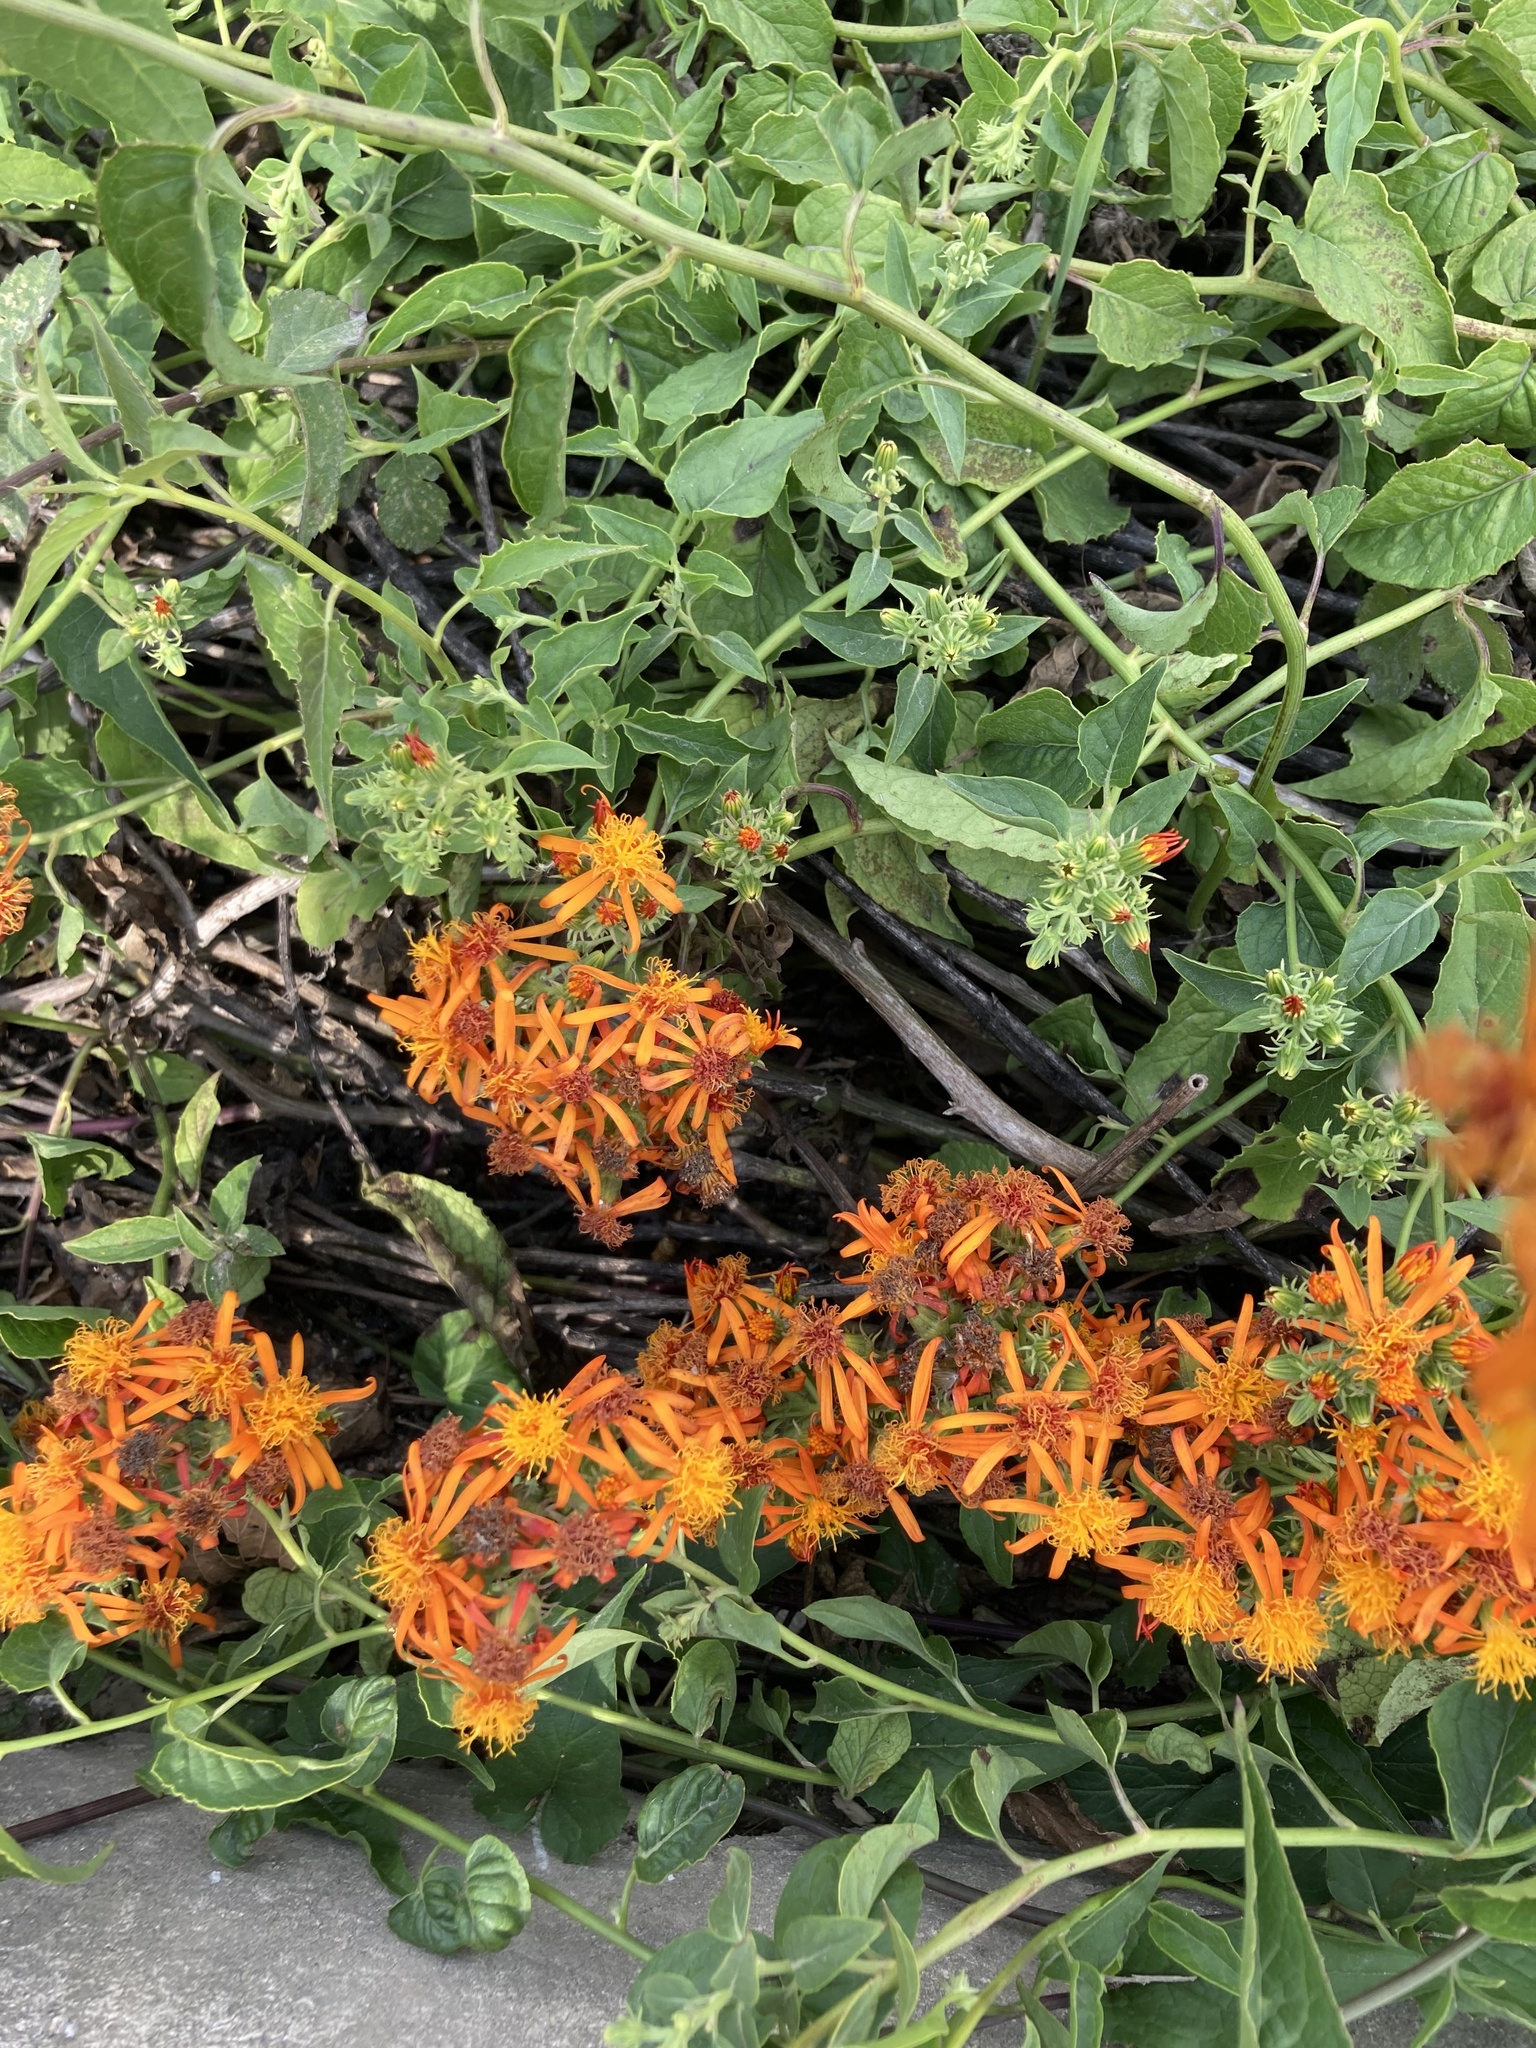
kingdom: Plantae
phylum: Tracheophyta
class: Magnoliopsida
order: Asterales
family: Asteraceae
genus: Pseudogynoxys
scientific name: Pseudogynoxys chenopodioides
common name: Mexican flamevine
